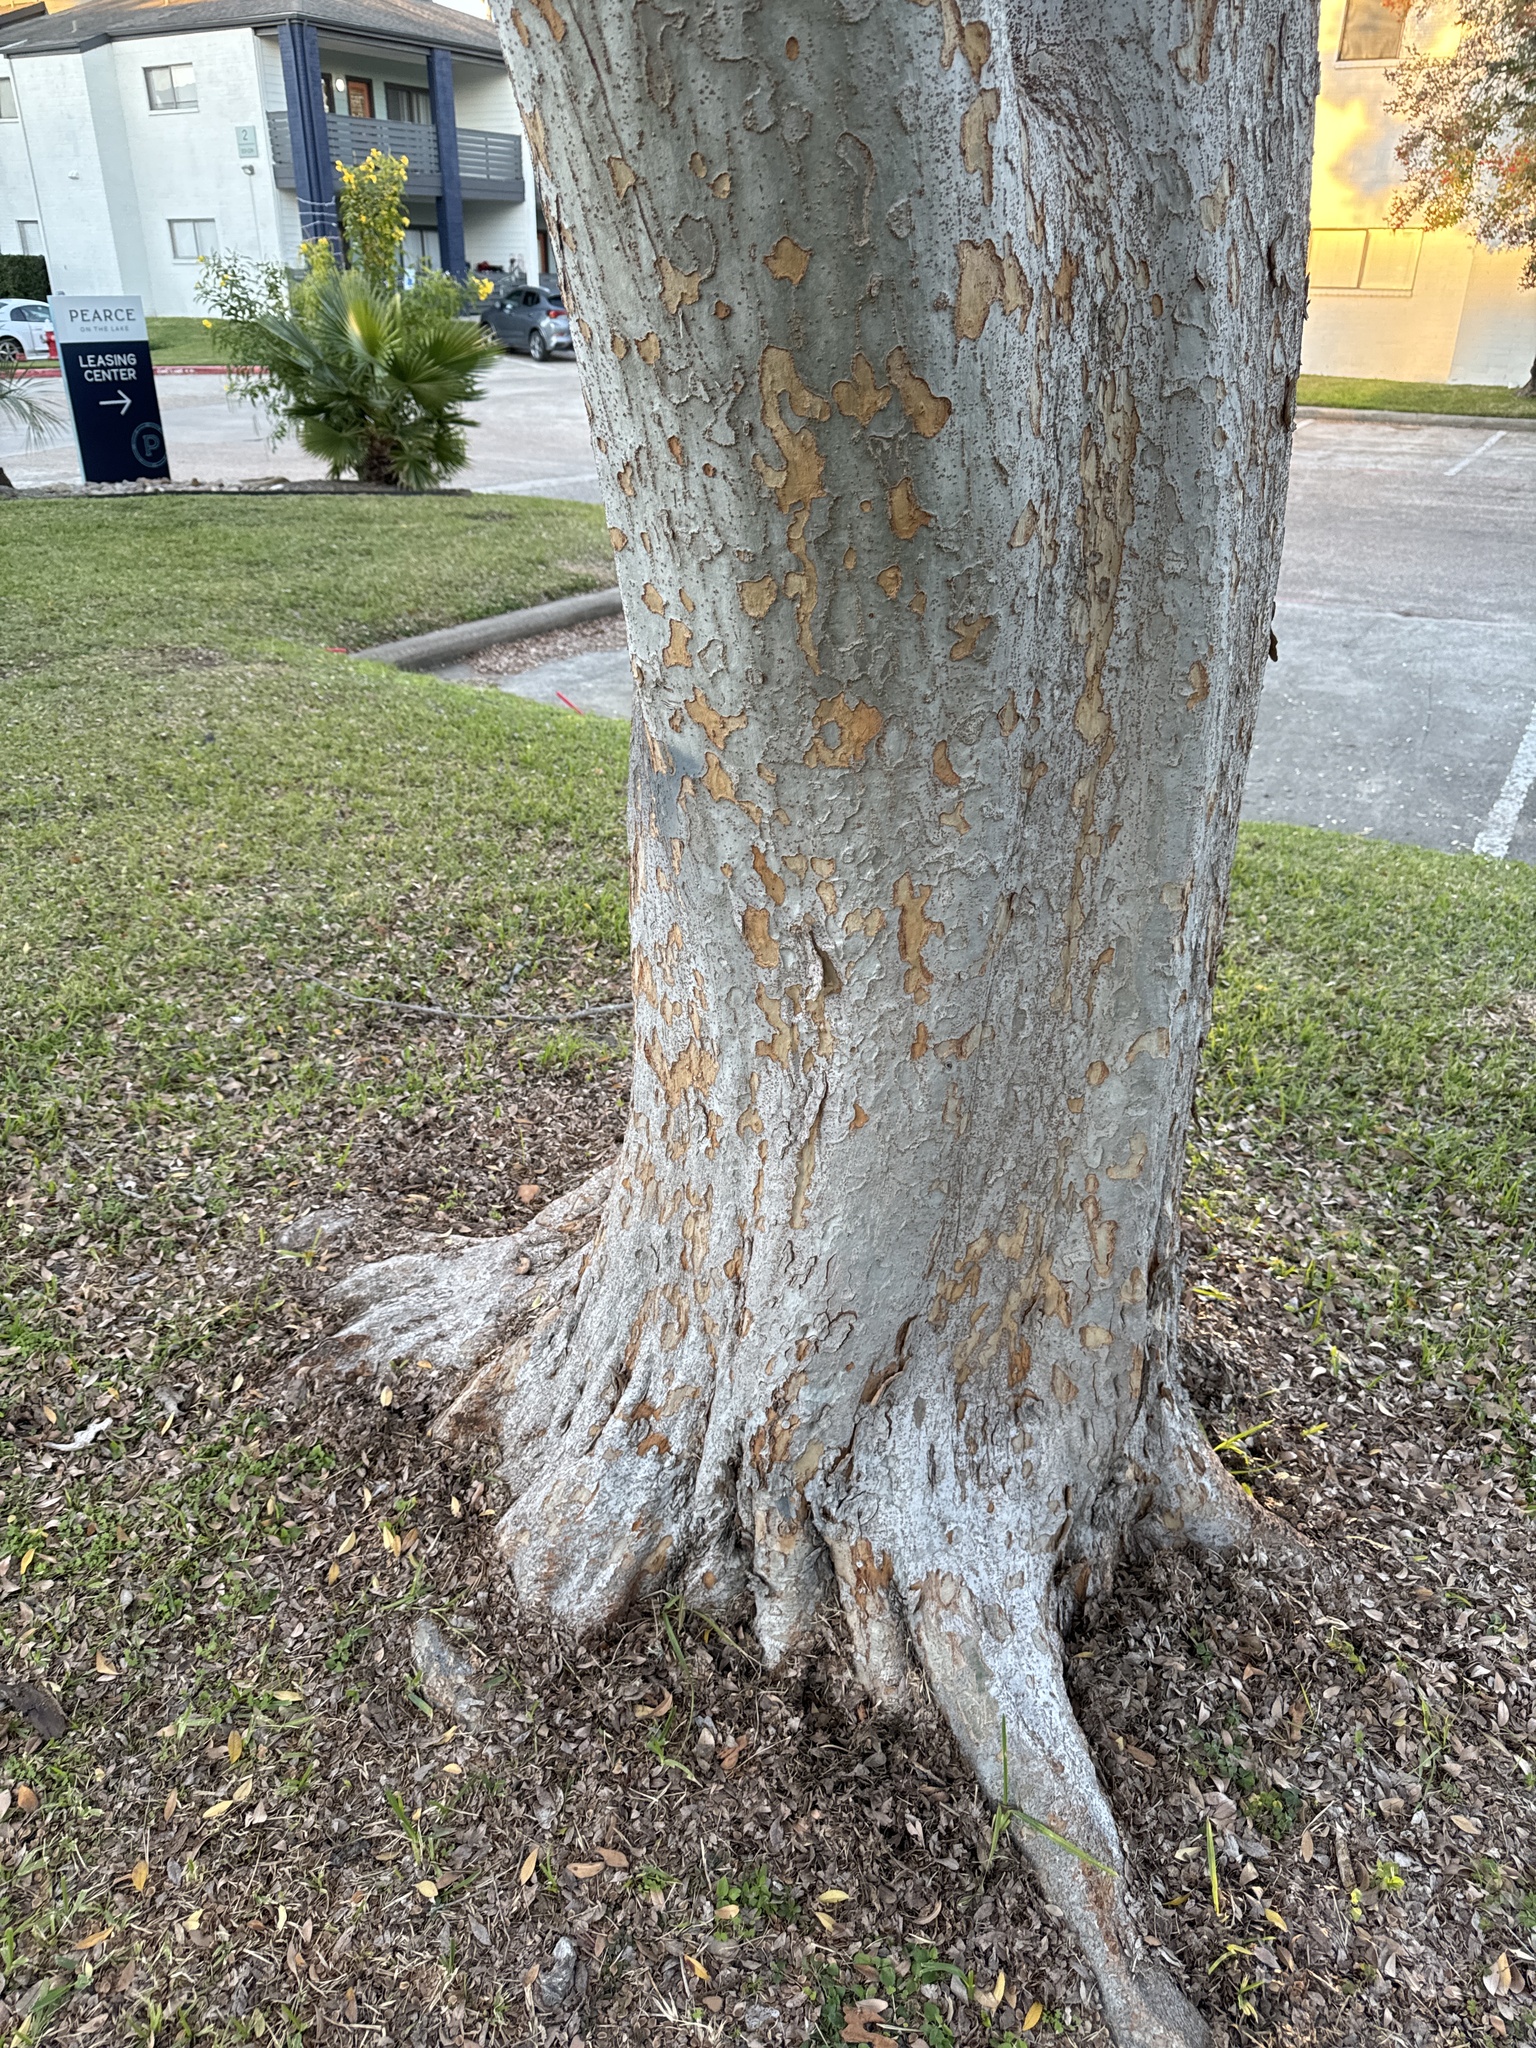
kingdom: Plantae
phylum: Tracheophyta
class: Magnoliopsida
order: Rosales
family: Ulmaceae
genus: Ulmus
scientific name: Ulmus parvifolia
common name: Chinese elm
